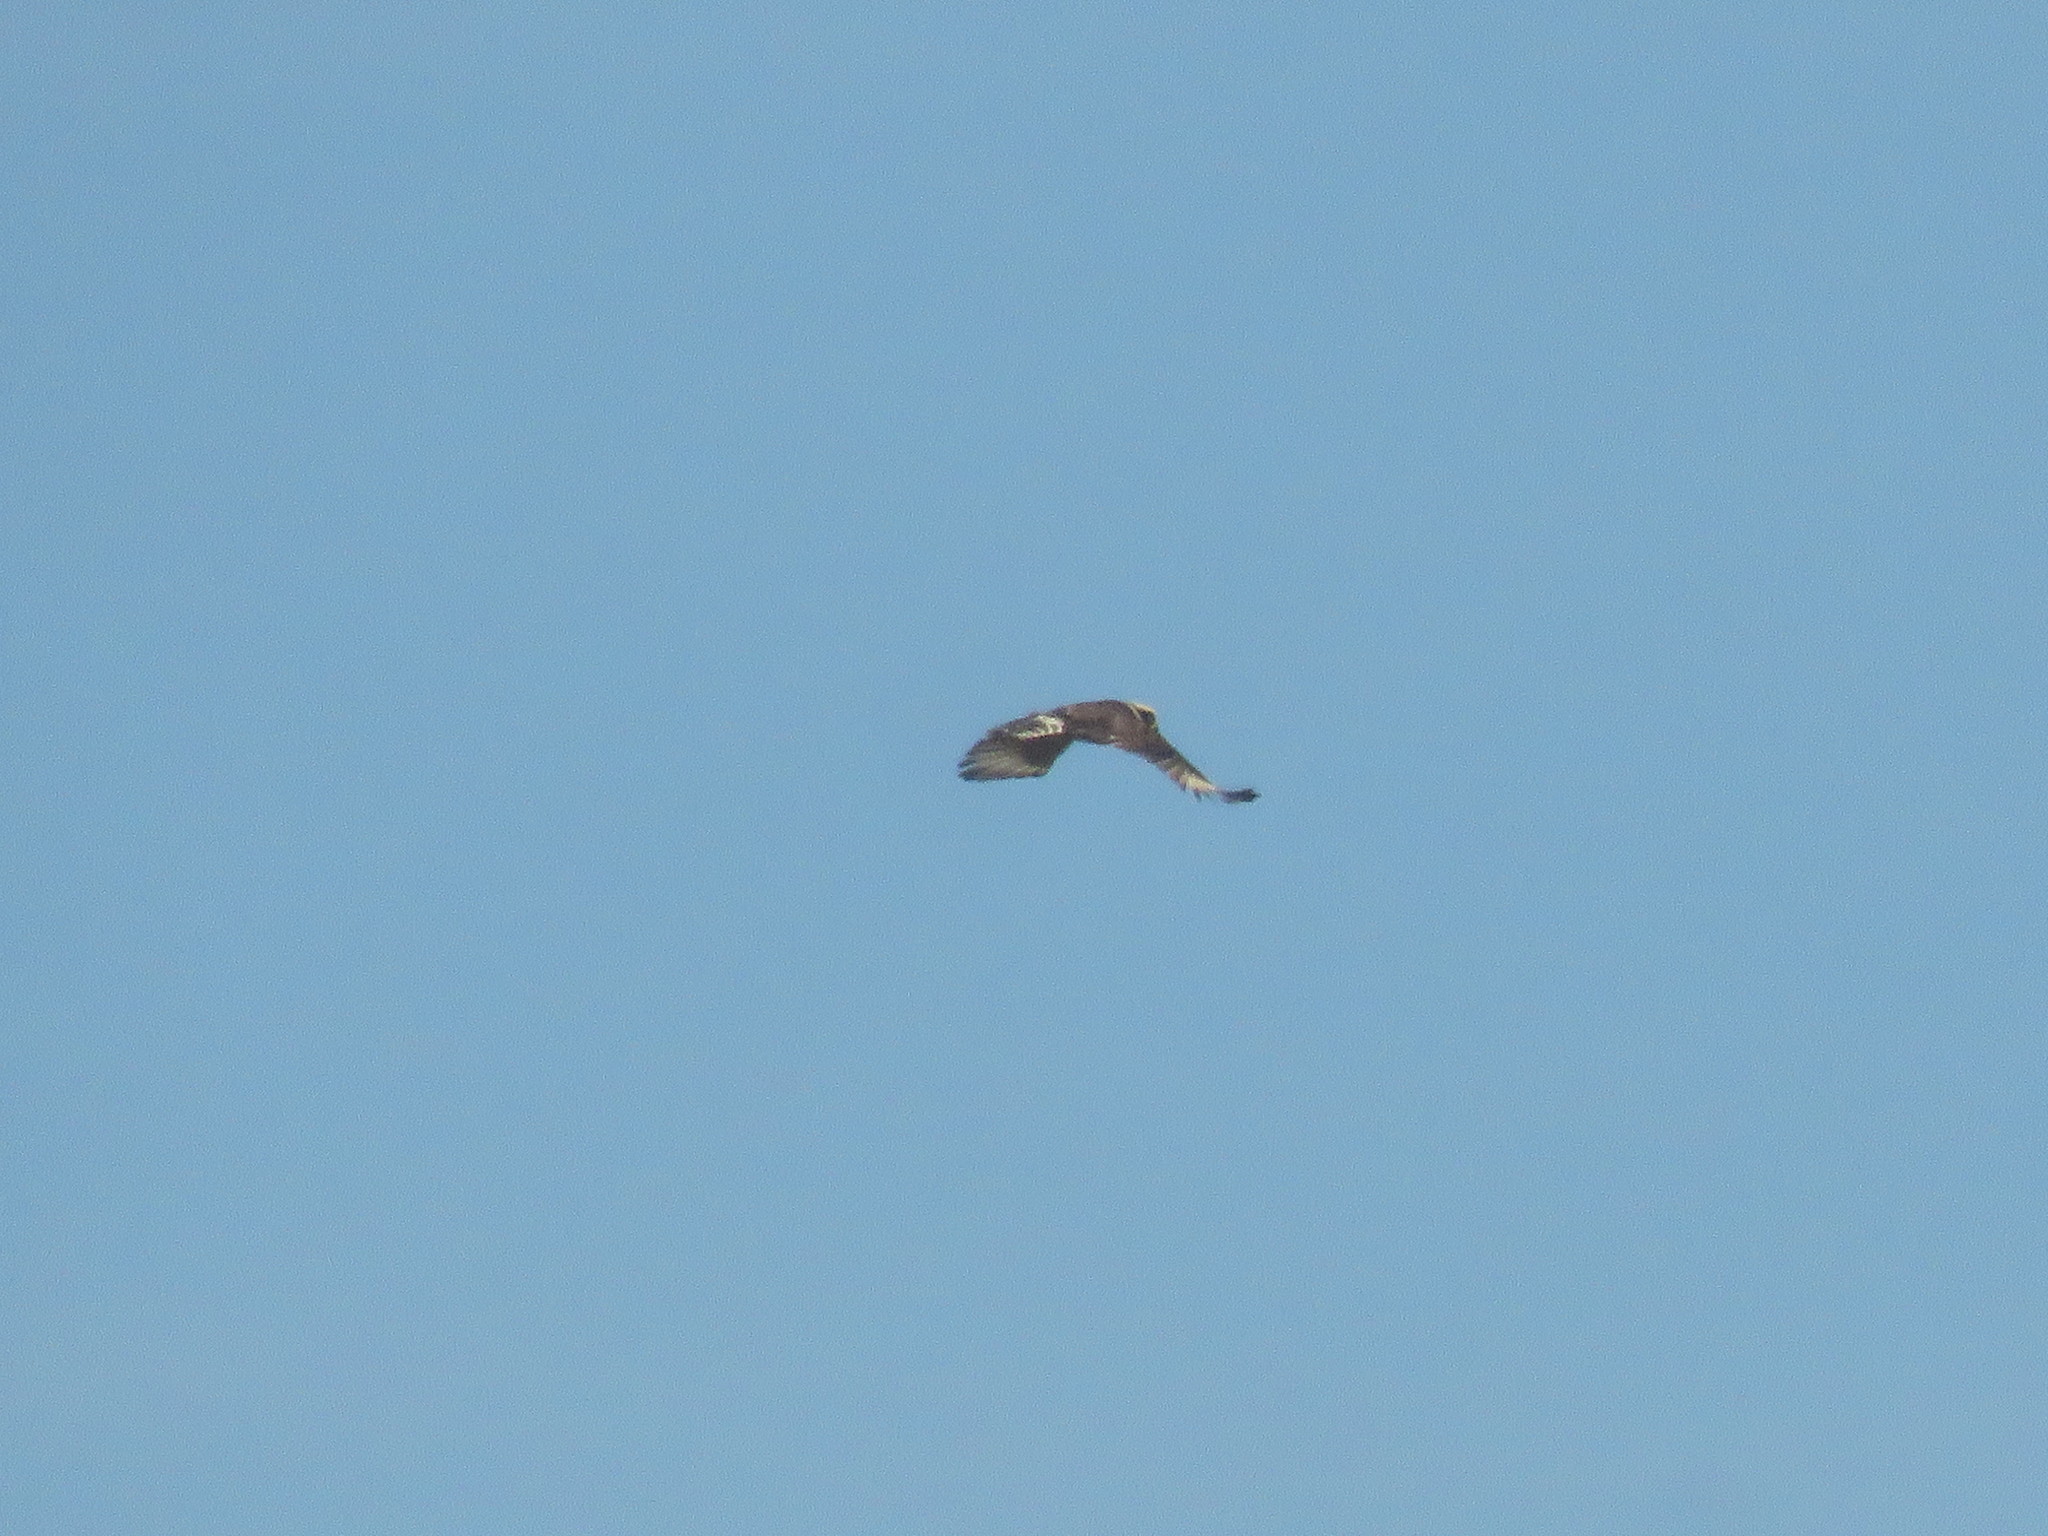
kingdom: Animalia
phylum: Chordata
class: Aves
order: Falconiformes
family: Falconidae
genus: Herpetotheres
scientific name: Herpetotheres cachinnans
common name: Laughing falcon
